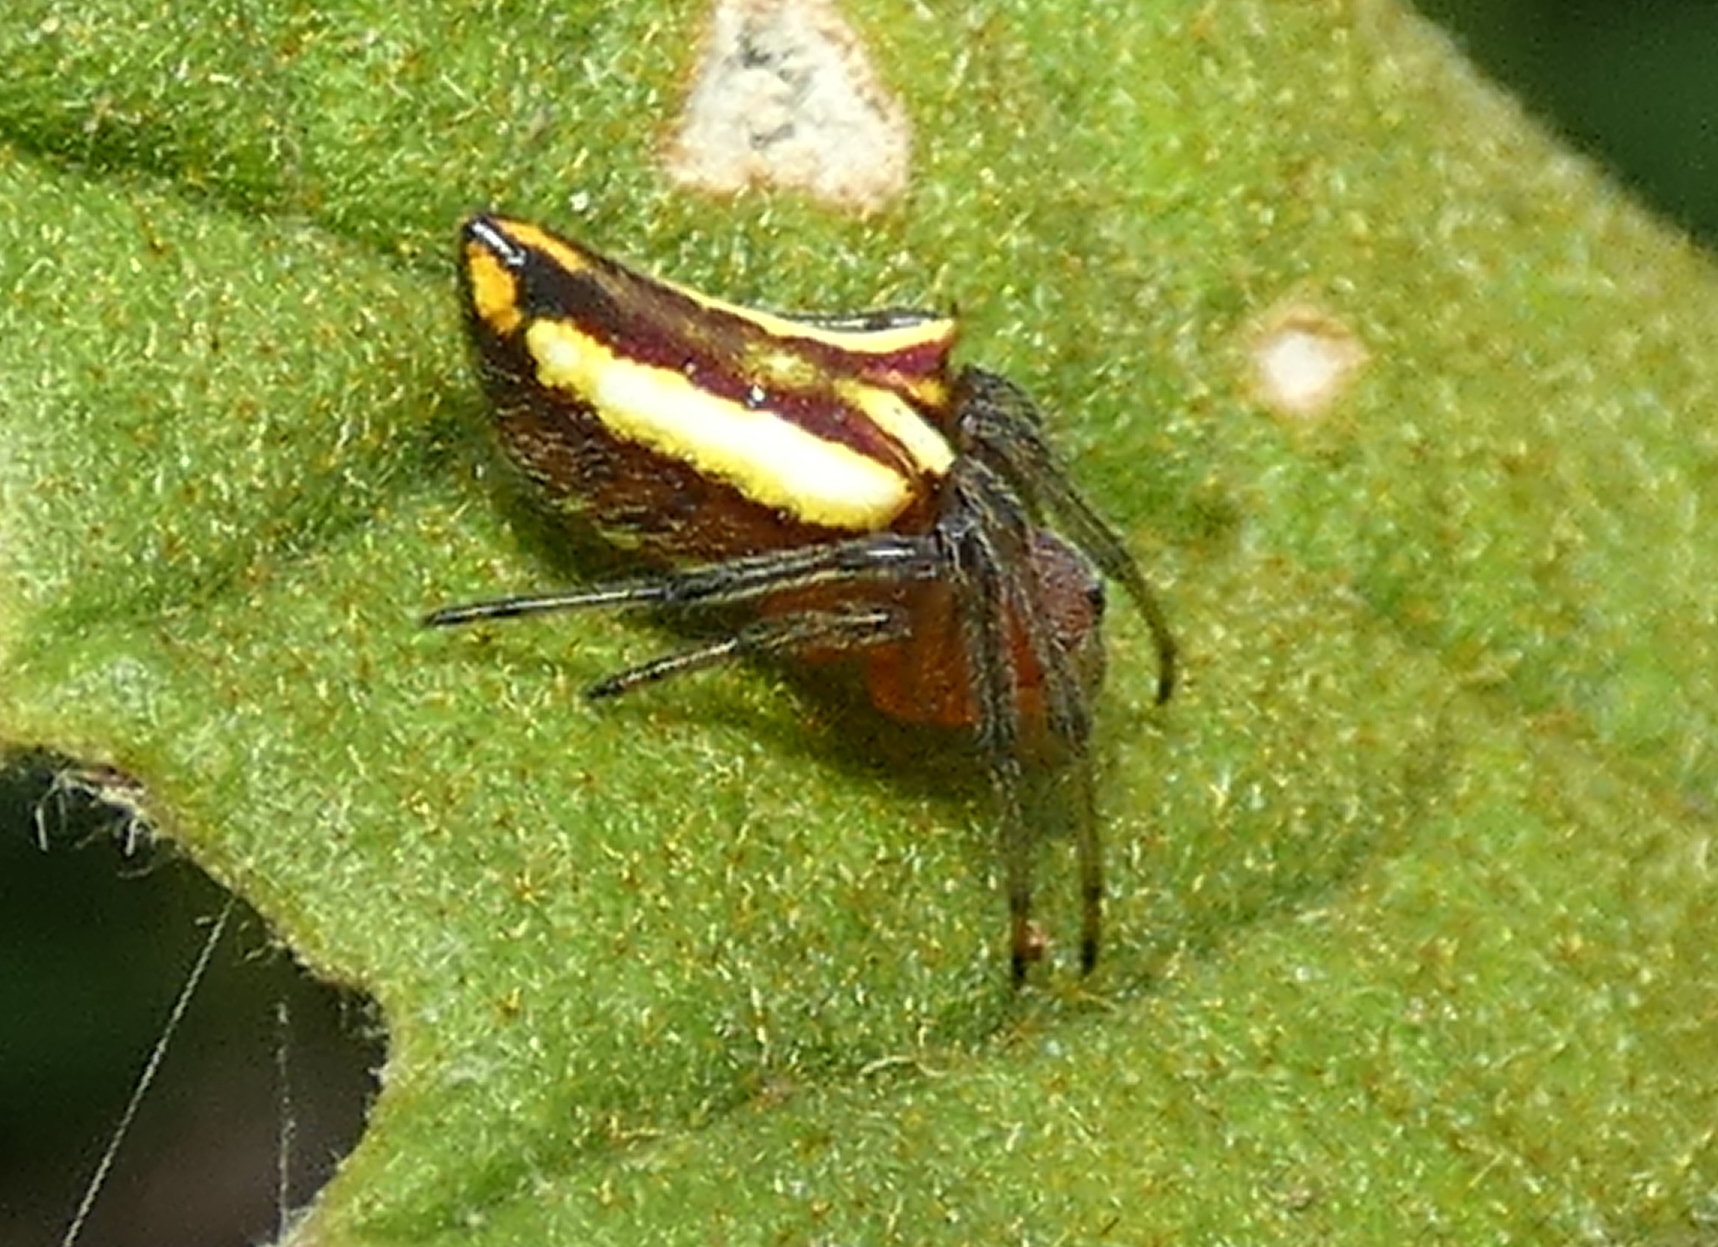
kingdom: Animalia
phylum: Arthropoda
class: Arachnida
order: Araneae
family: Araneidae
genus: Alpaida
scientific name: Alpaida bicornuta
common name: Orb weavers
